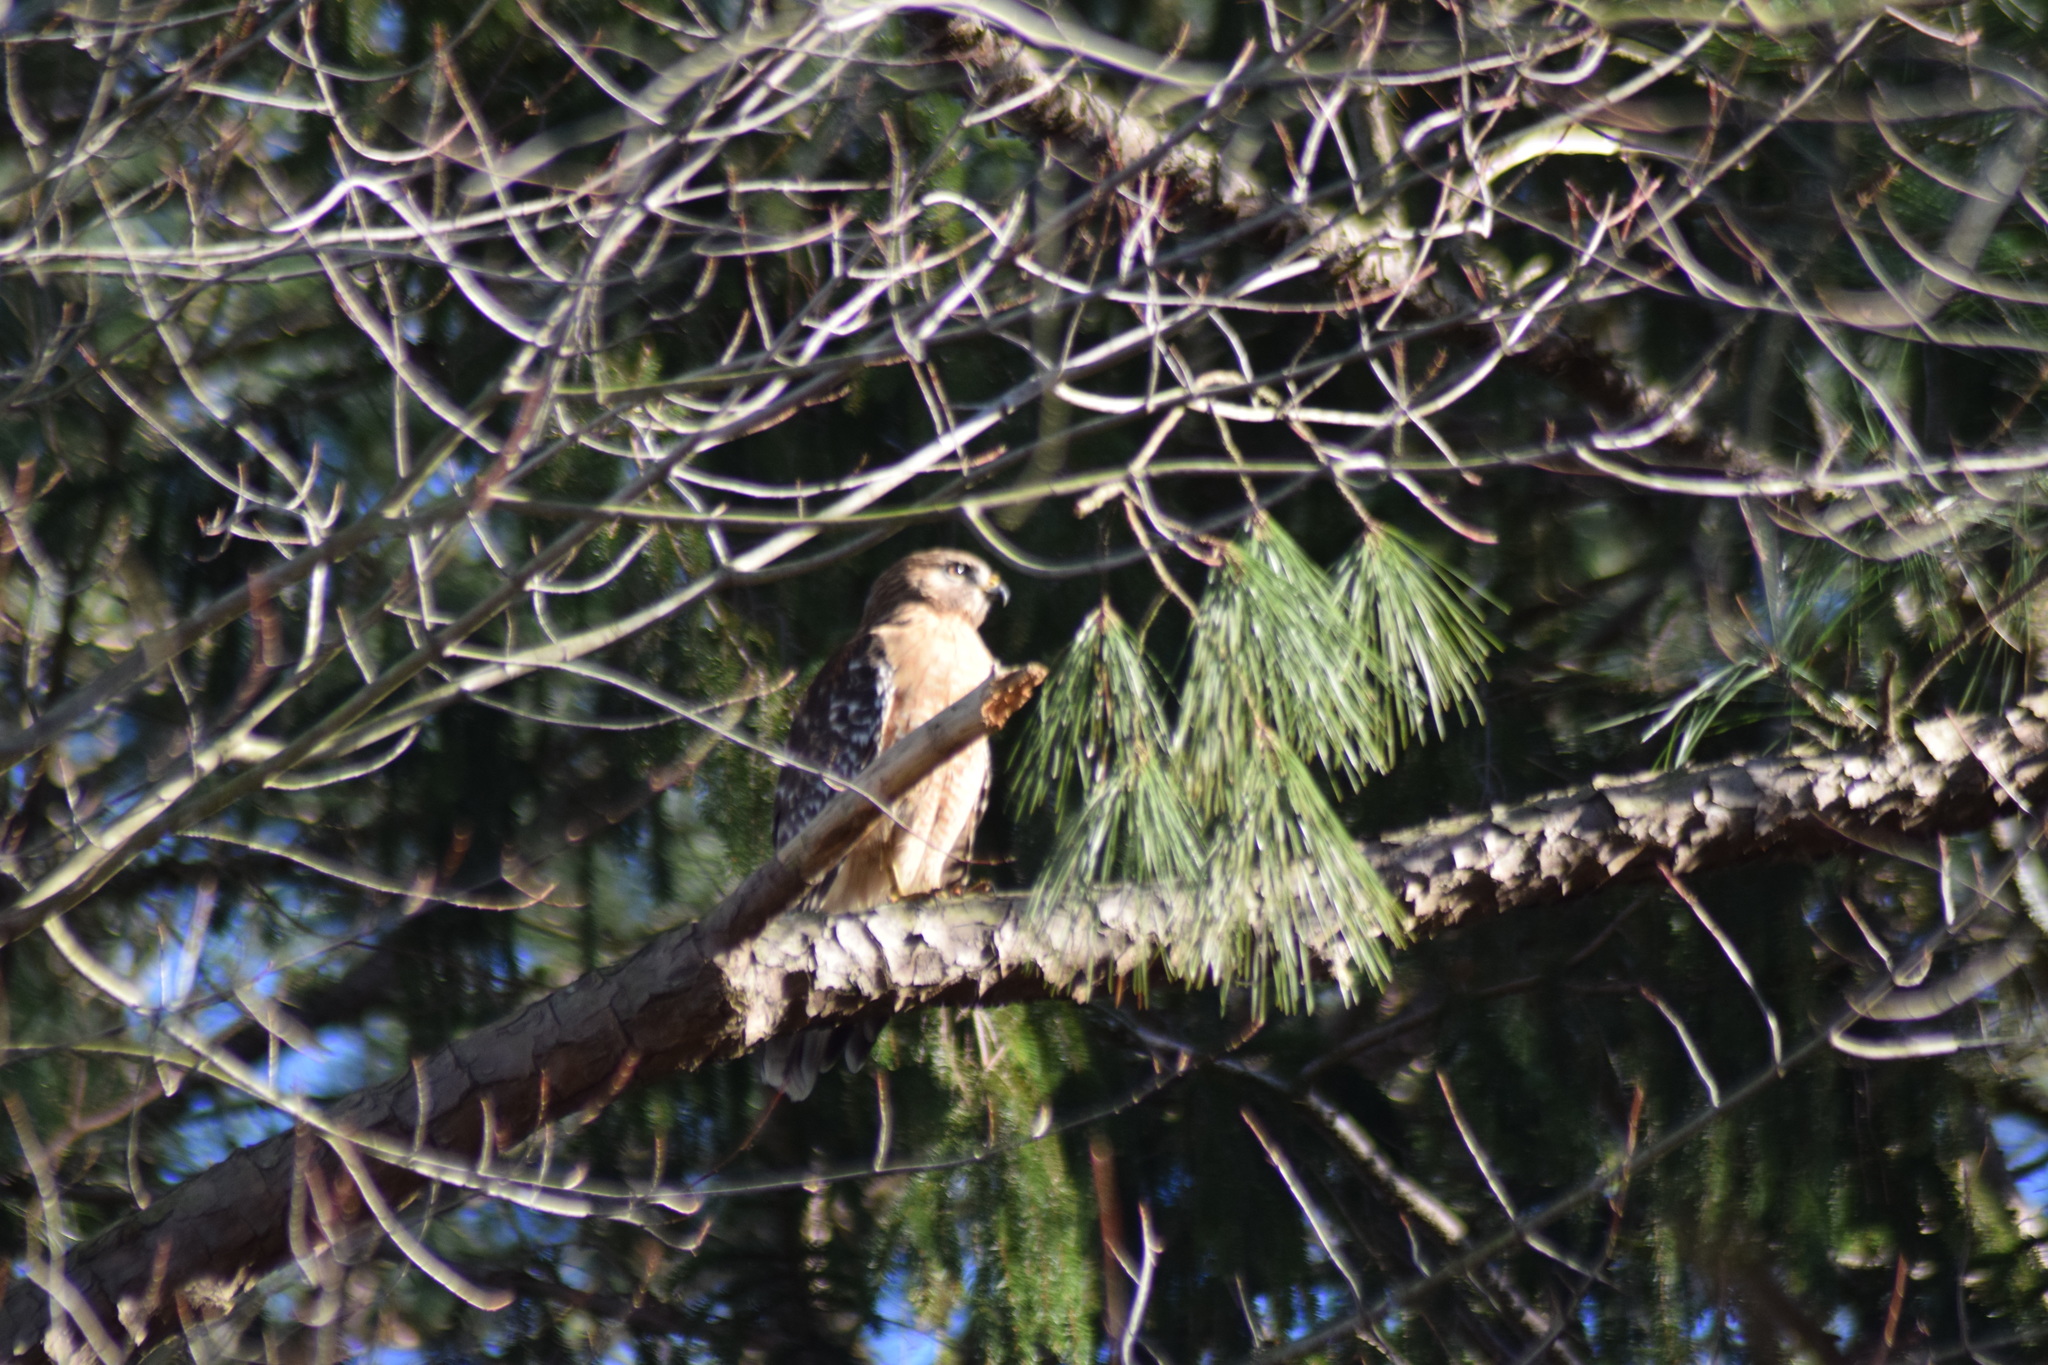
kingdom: Animalia
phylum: Chordata
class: Aves
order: Accipitriformes
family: Accipitridae
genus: Buteo
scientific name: Buteo lineatus
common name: Red-shouldered hawk
